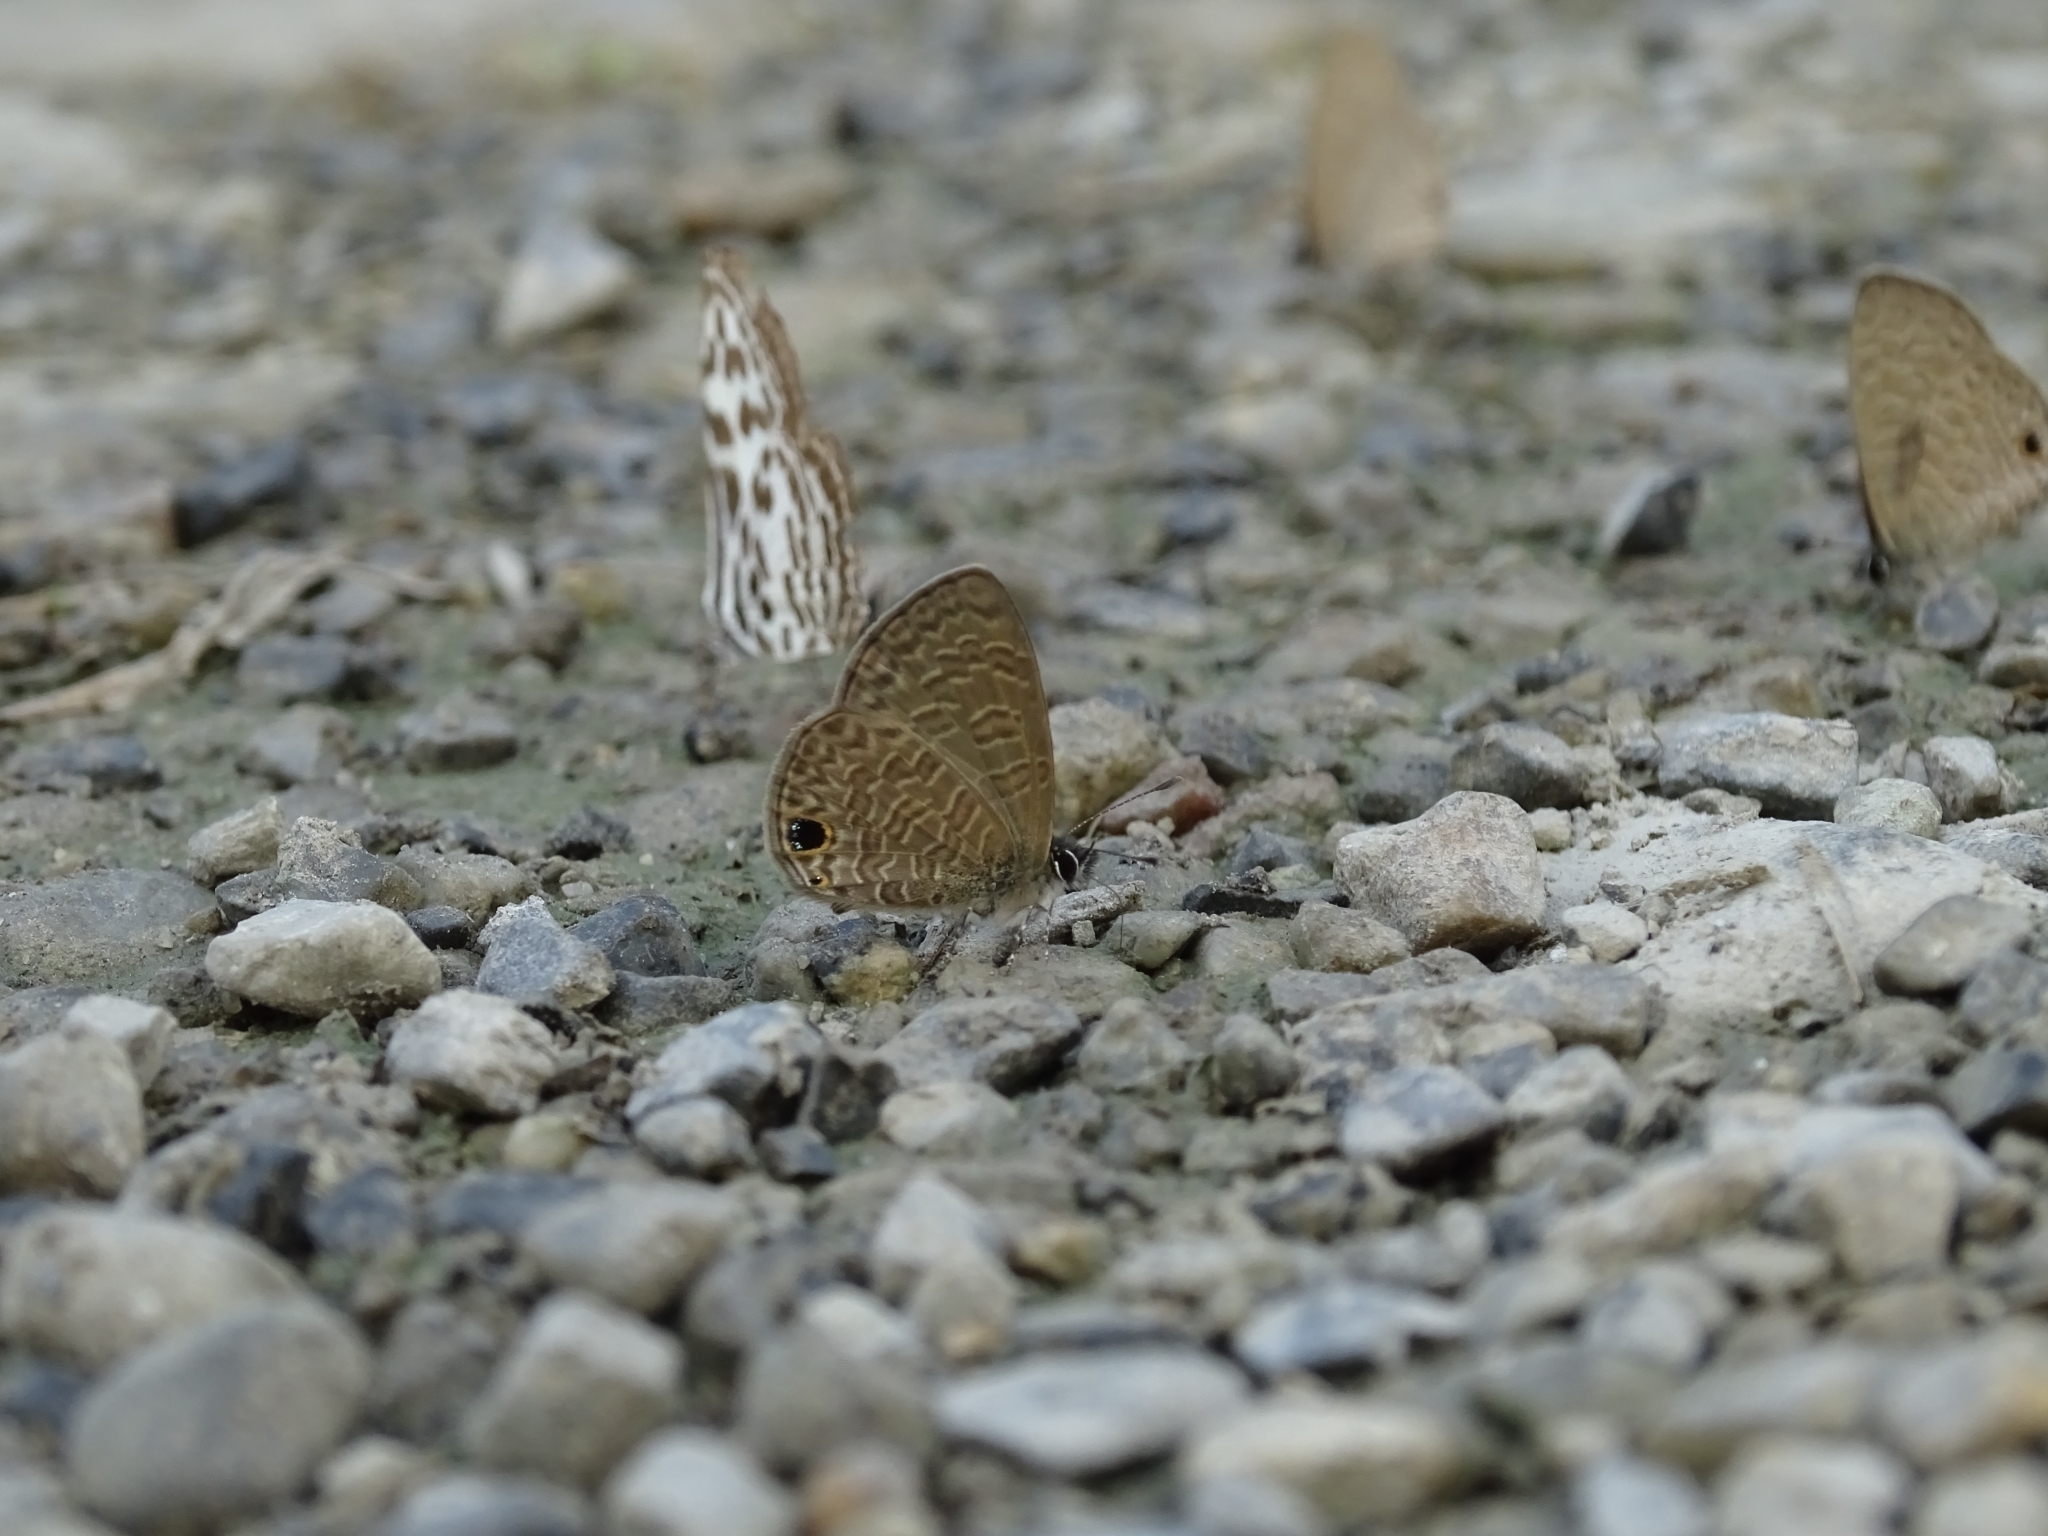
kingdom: Animalia
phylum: Arthropoda
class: Insecta
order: Lepidoptera
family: Lycaenidae
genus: Prosotas
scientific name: Prosotas dubiosa
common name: Tailless lineblue
